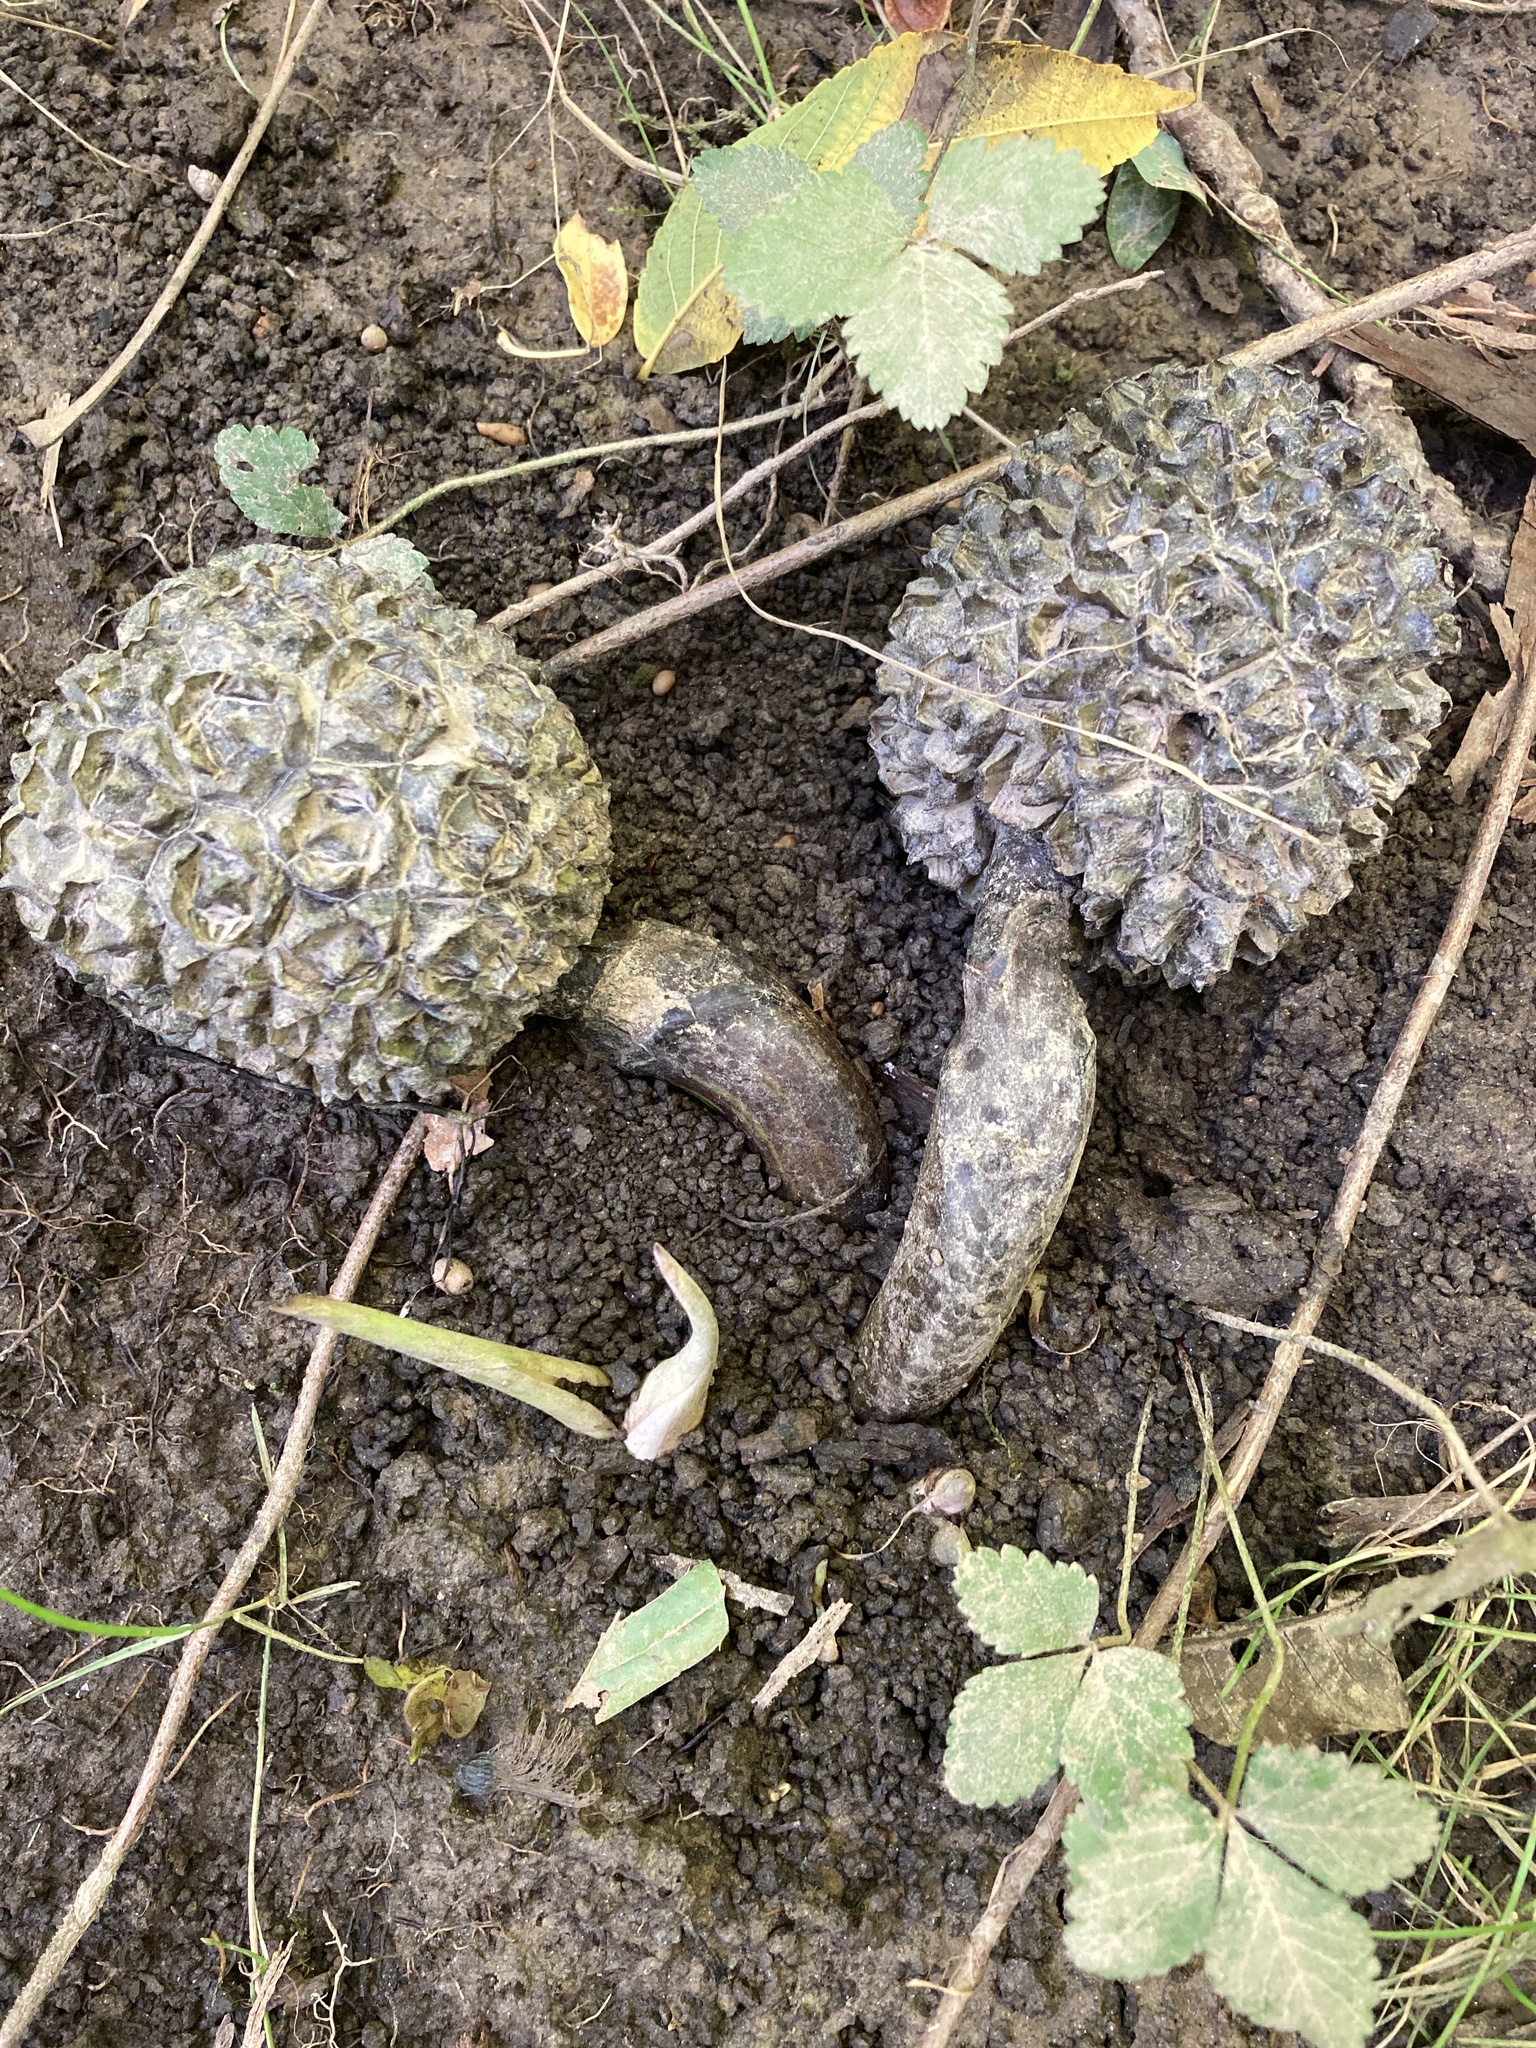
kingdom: Plantae
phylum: Tracheophyta
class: Liliopsida
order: Alismatales
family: Araceae
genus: Symplocarpus
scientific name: Symplocarpus foetidus
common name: Eastern skunk cabbage
